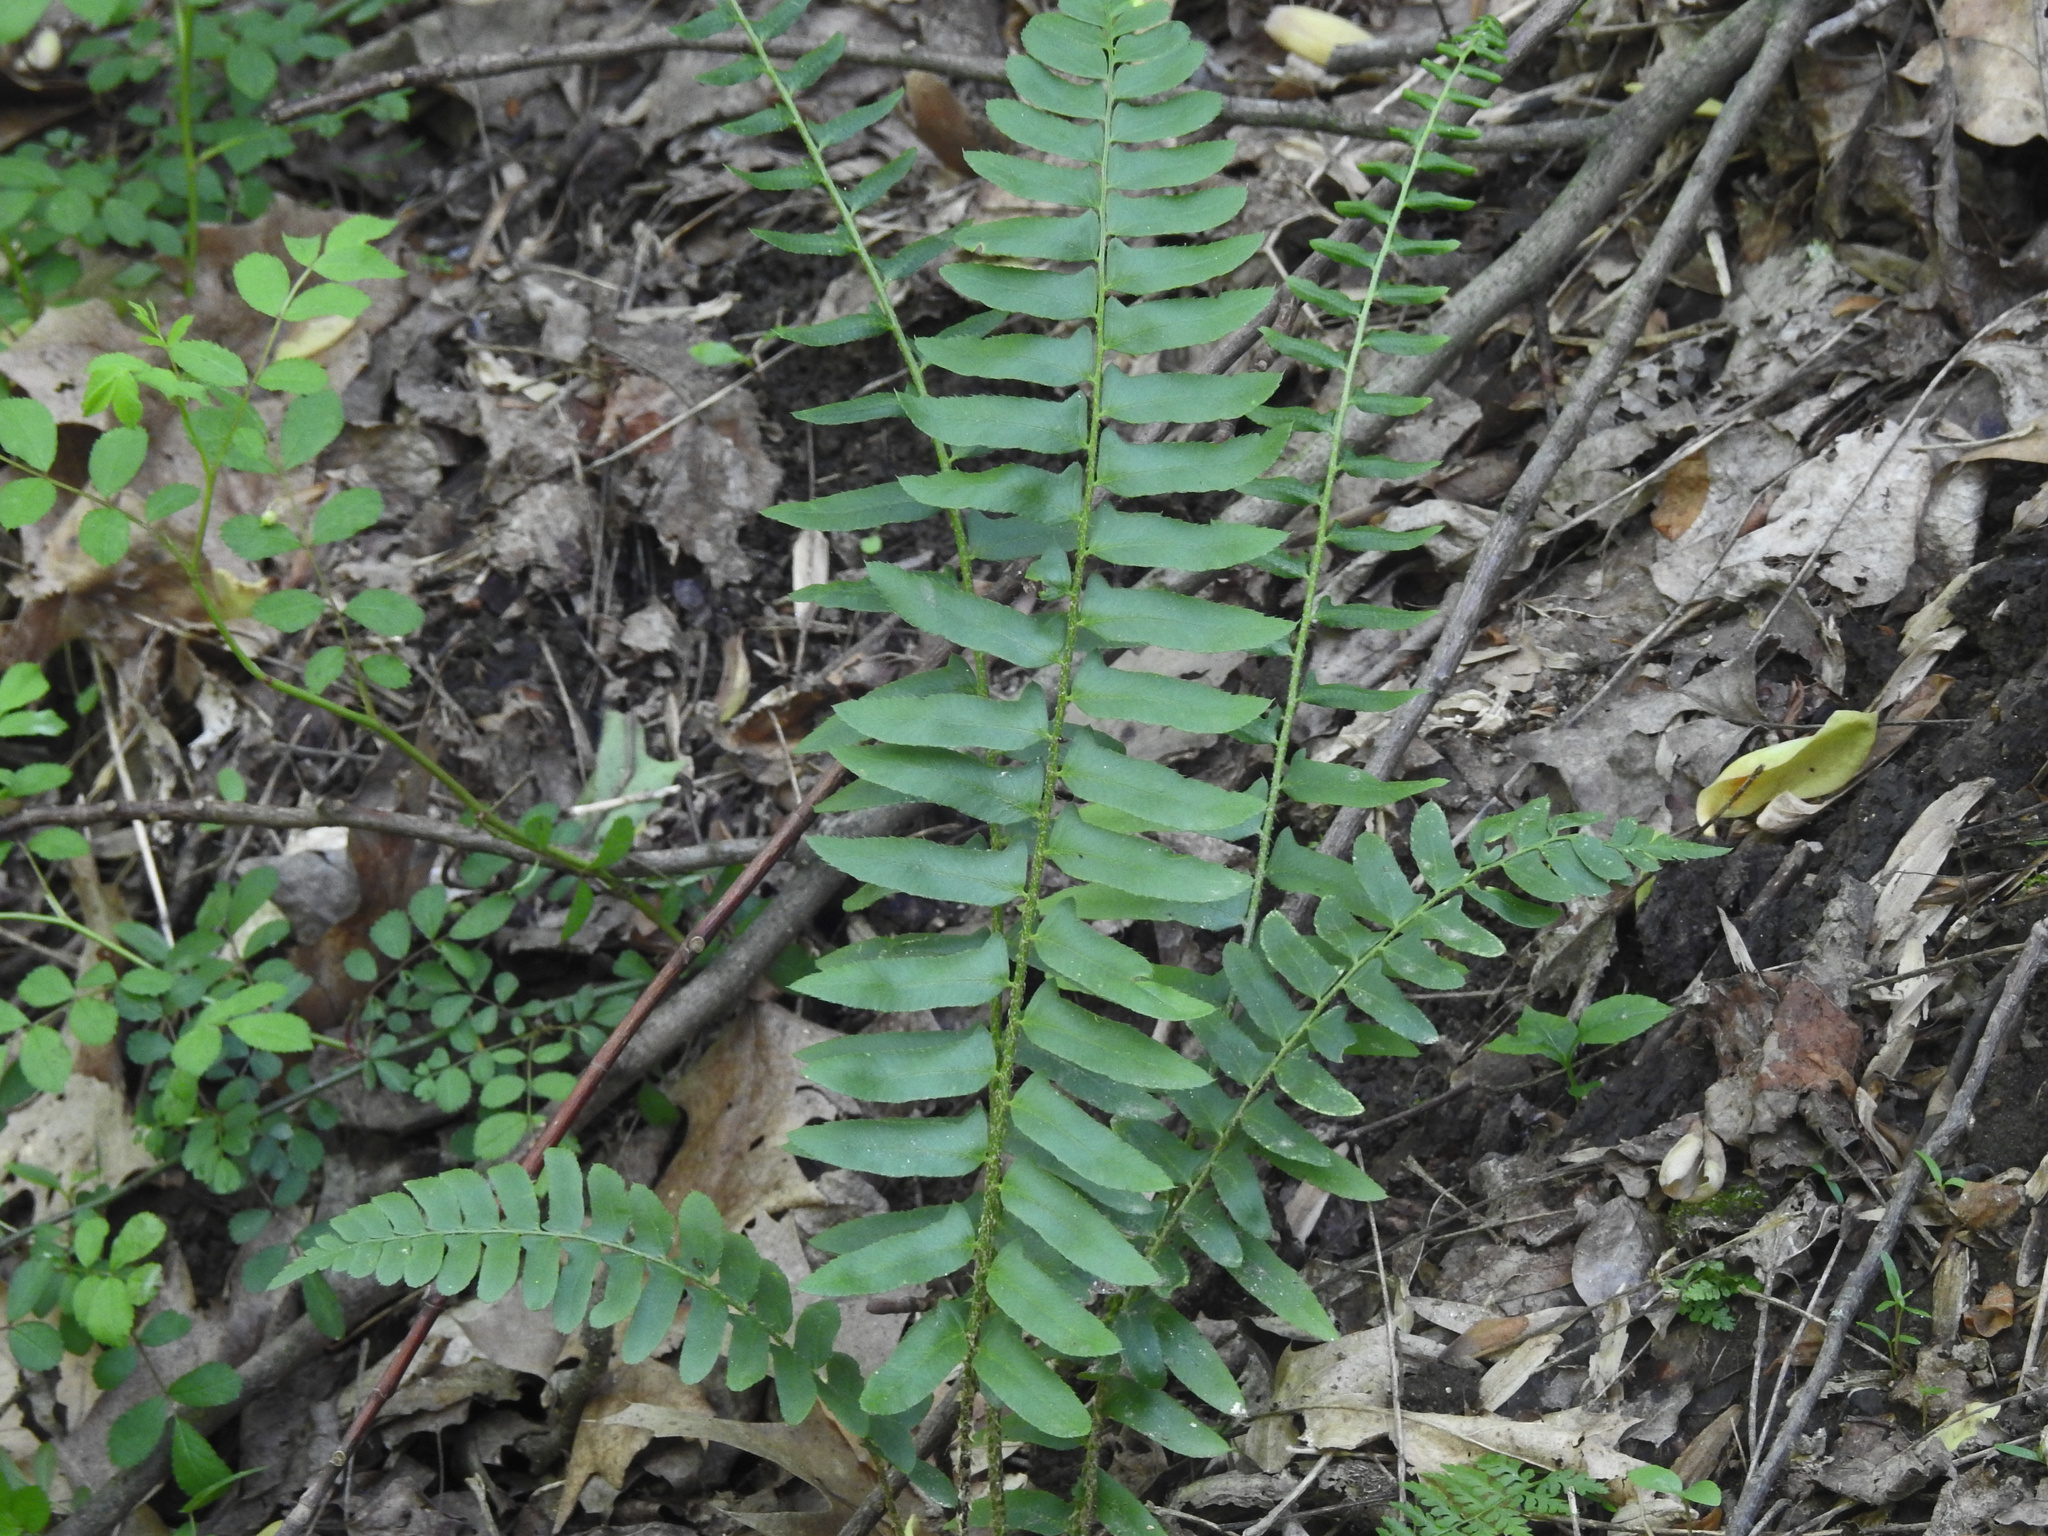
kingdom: Plantae
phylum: Tracheophyta
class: Polypodiopsida
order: Polypodiales
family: Dryopteridaceae
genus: Polystichum
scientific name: Polystichum acrostichoides
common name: Christmas fern
